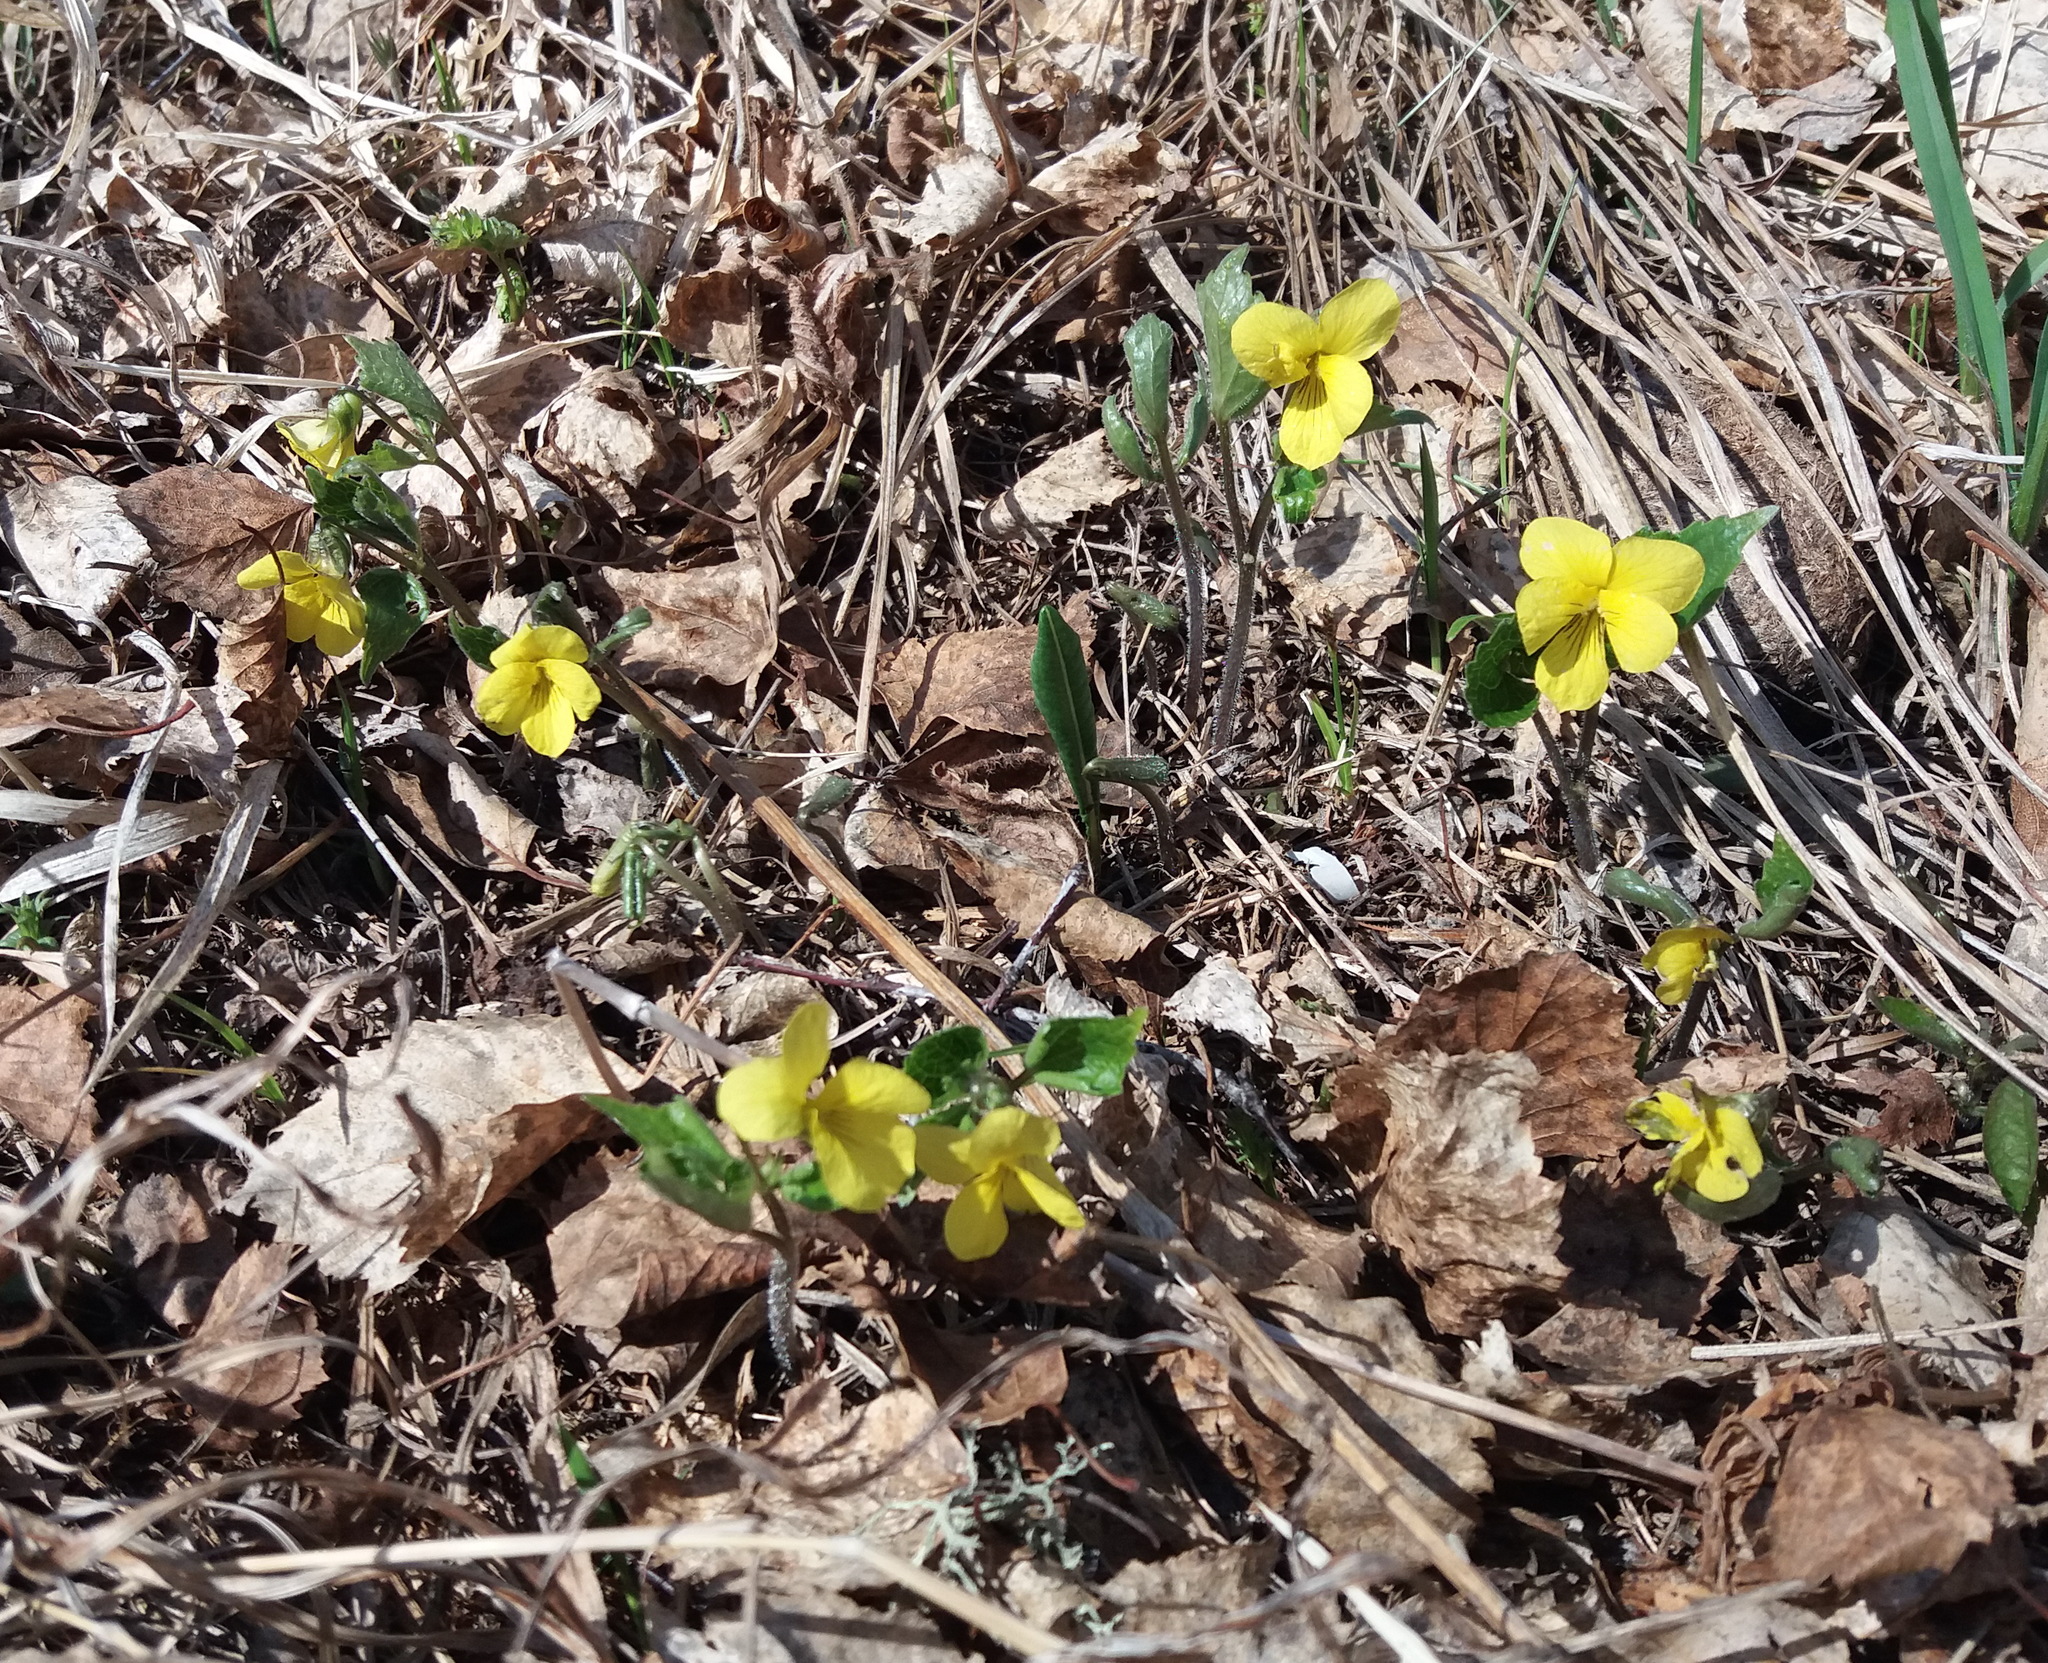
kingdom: Plantae
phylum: Tracheophyta
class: Magnoliopsida
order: Malpighiales
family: Violaceae
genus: Viola
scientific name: Viola uniflora
